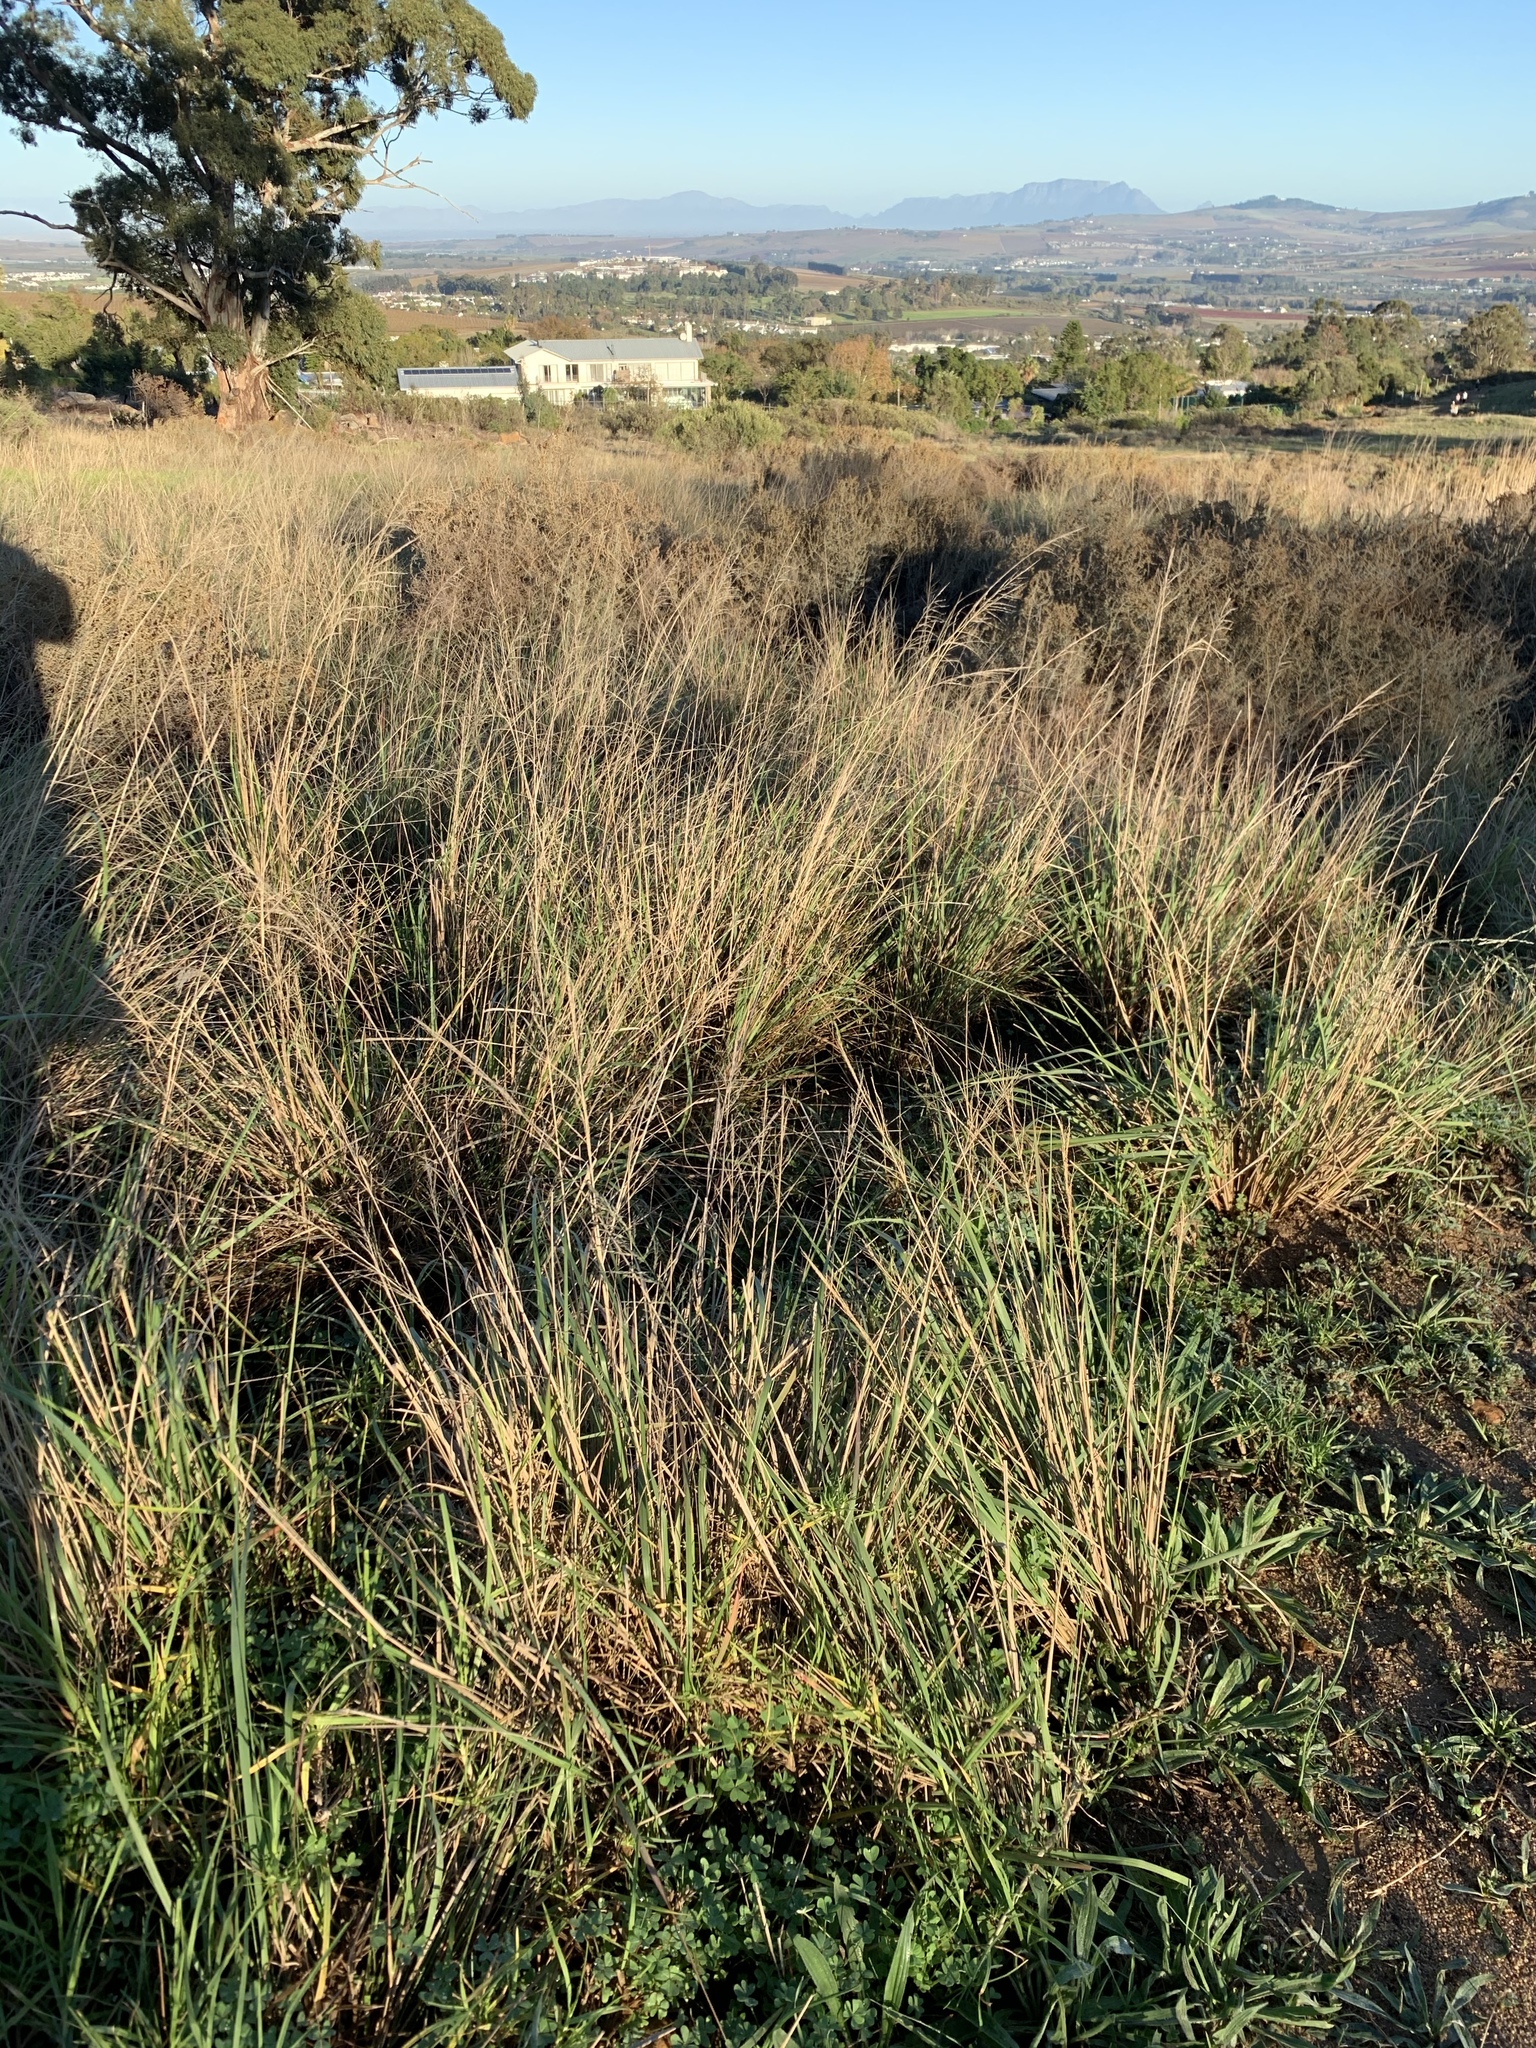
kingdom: Plantae
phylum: Tracheophyta
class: Liliopsida
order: Poales
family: Poaceae
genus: Eragrostis
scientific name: Eragrostis curvula
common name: African love-grass
